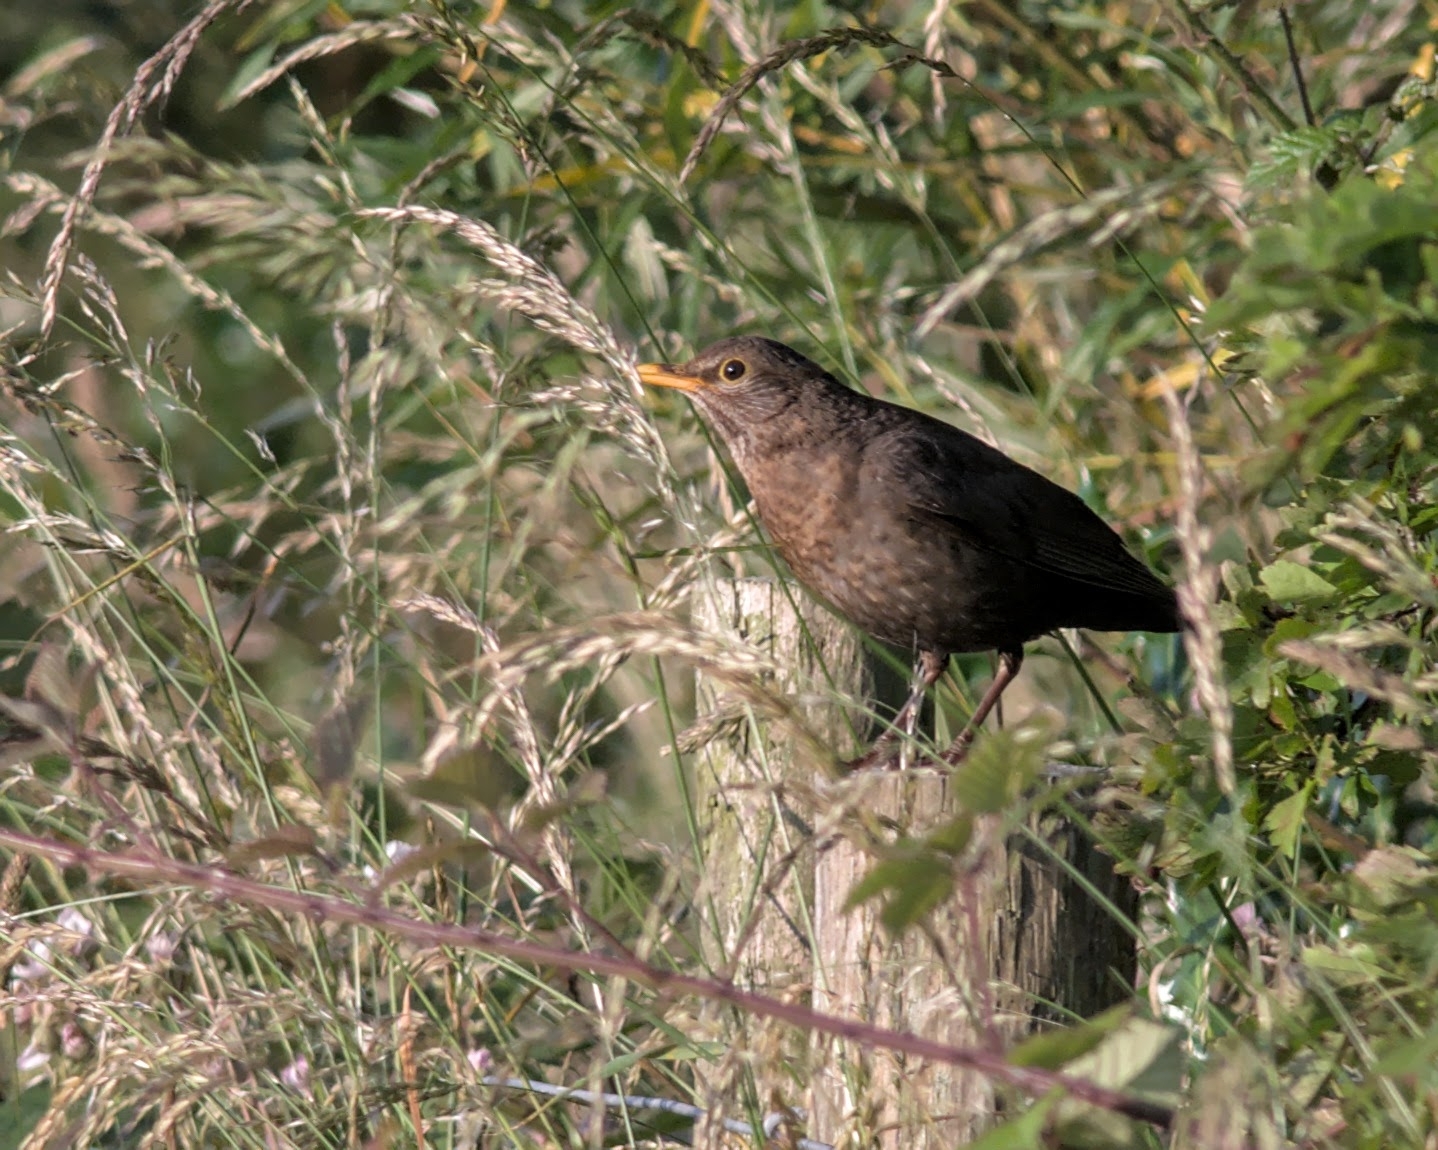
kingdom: Animalia
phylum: Chordata
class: Aves
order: Passeriformes
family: Turdidae
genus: Turdus
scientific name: Turdus merula
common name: Common blackbird
